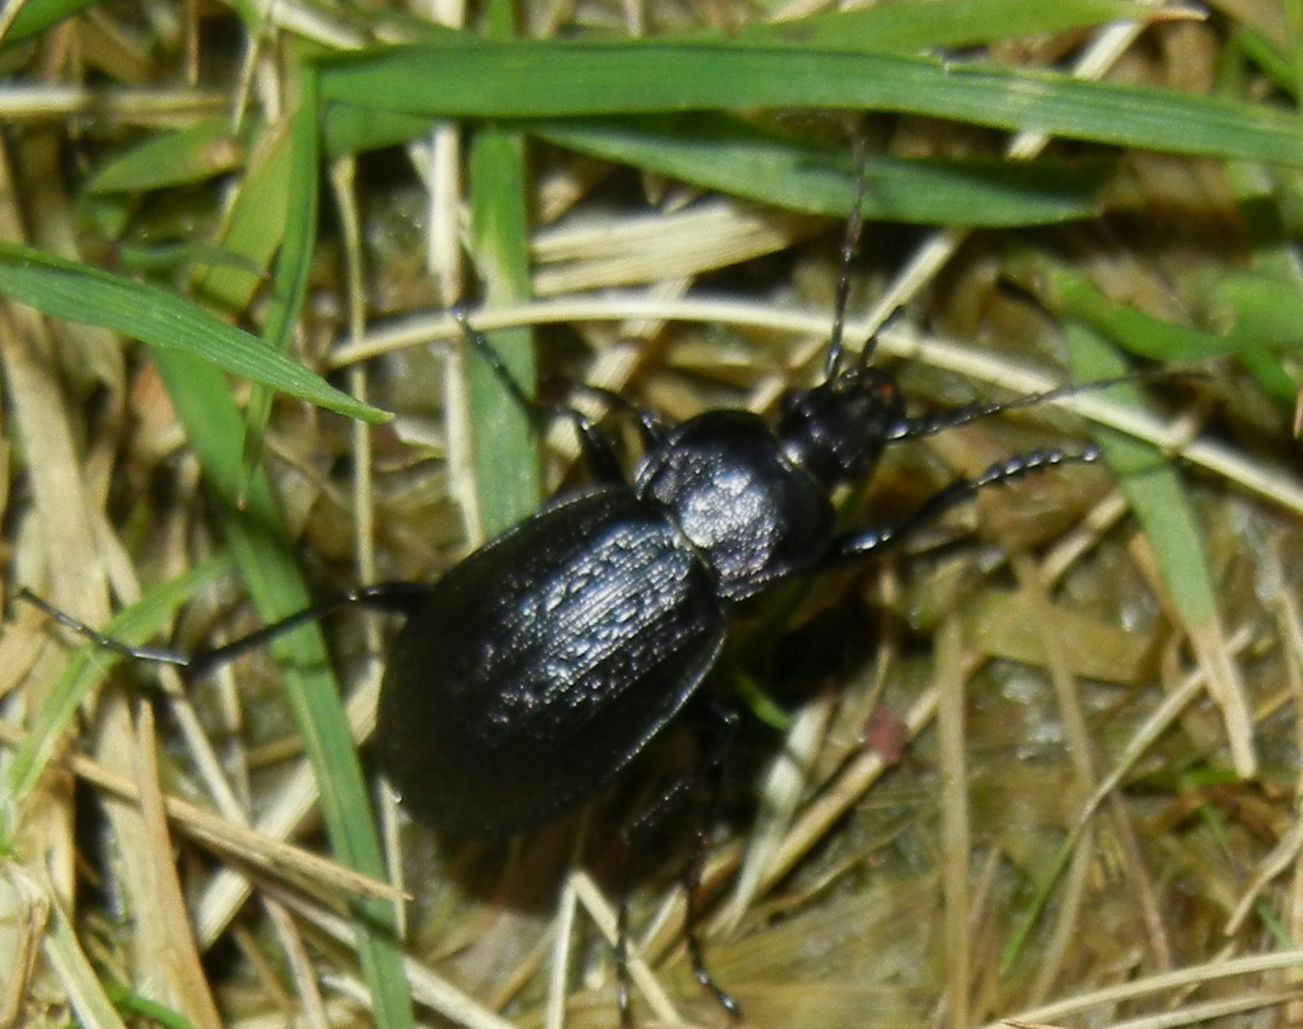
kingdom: Animalia
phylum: Arthropoda
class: Insecta
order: Coleoptera
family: Carabidae
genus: Carabus
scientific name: Carabus arvensis
